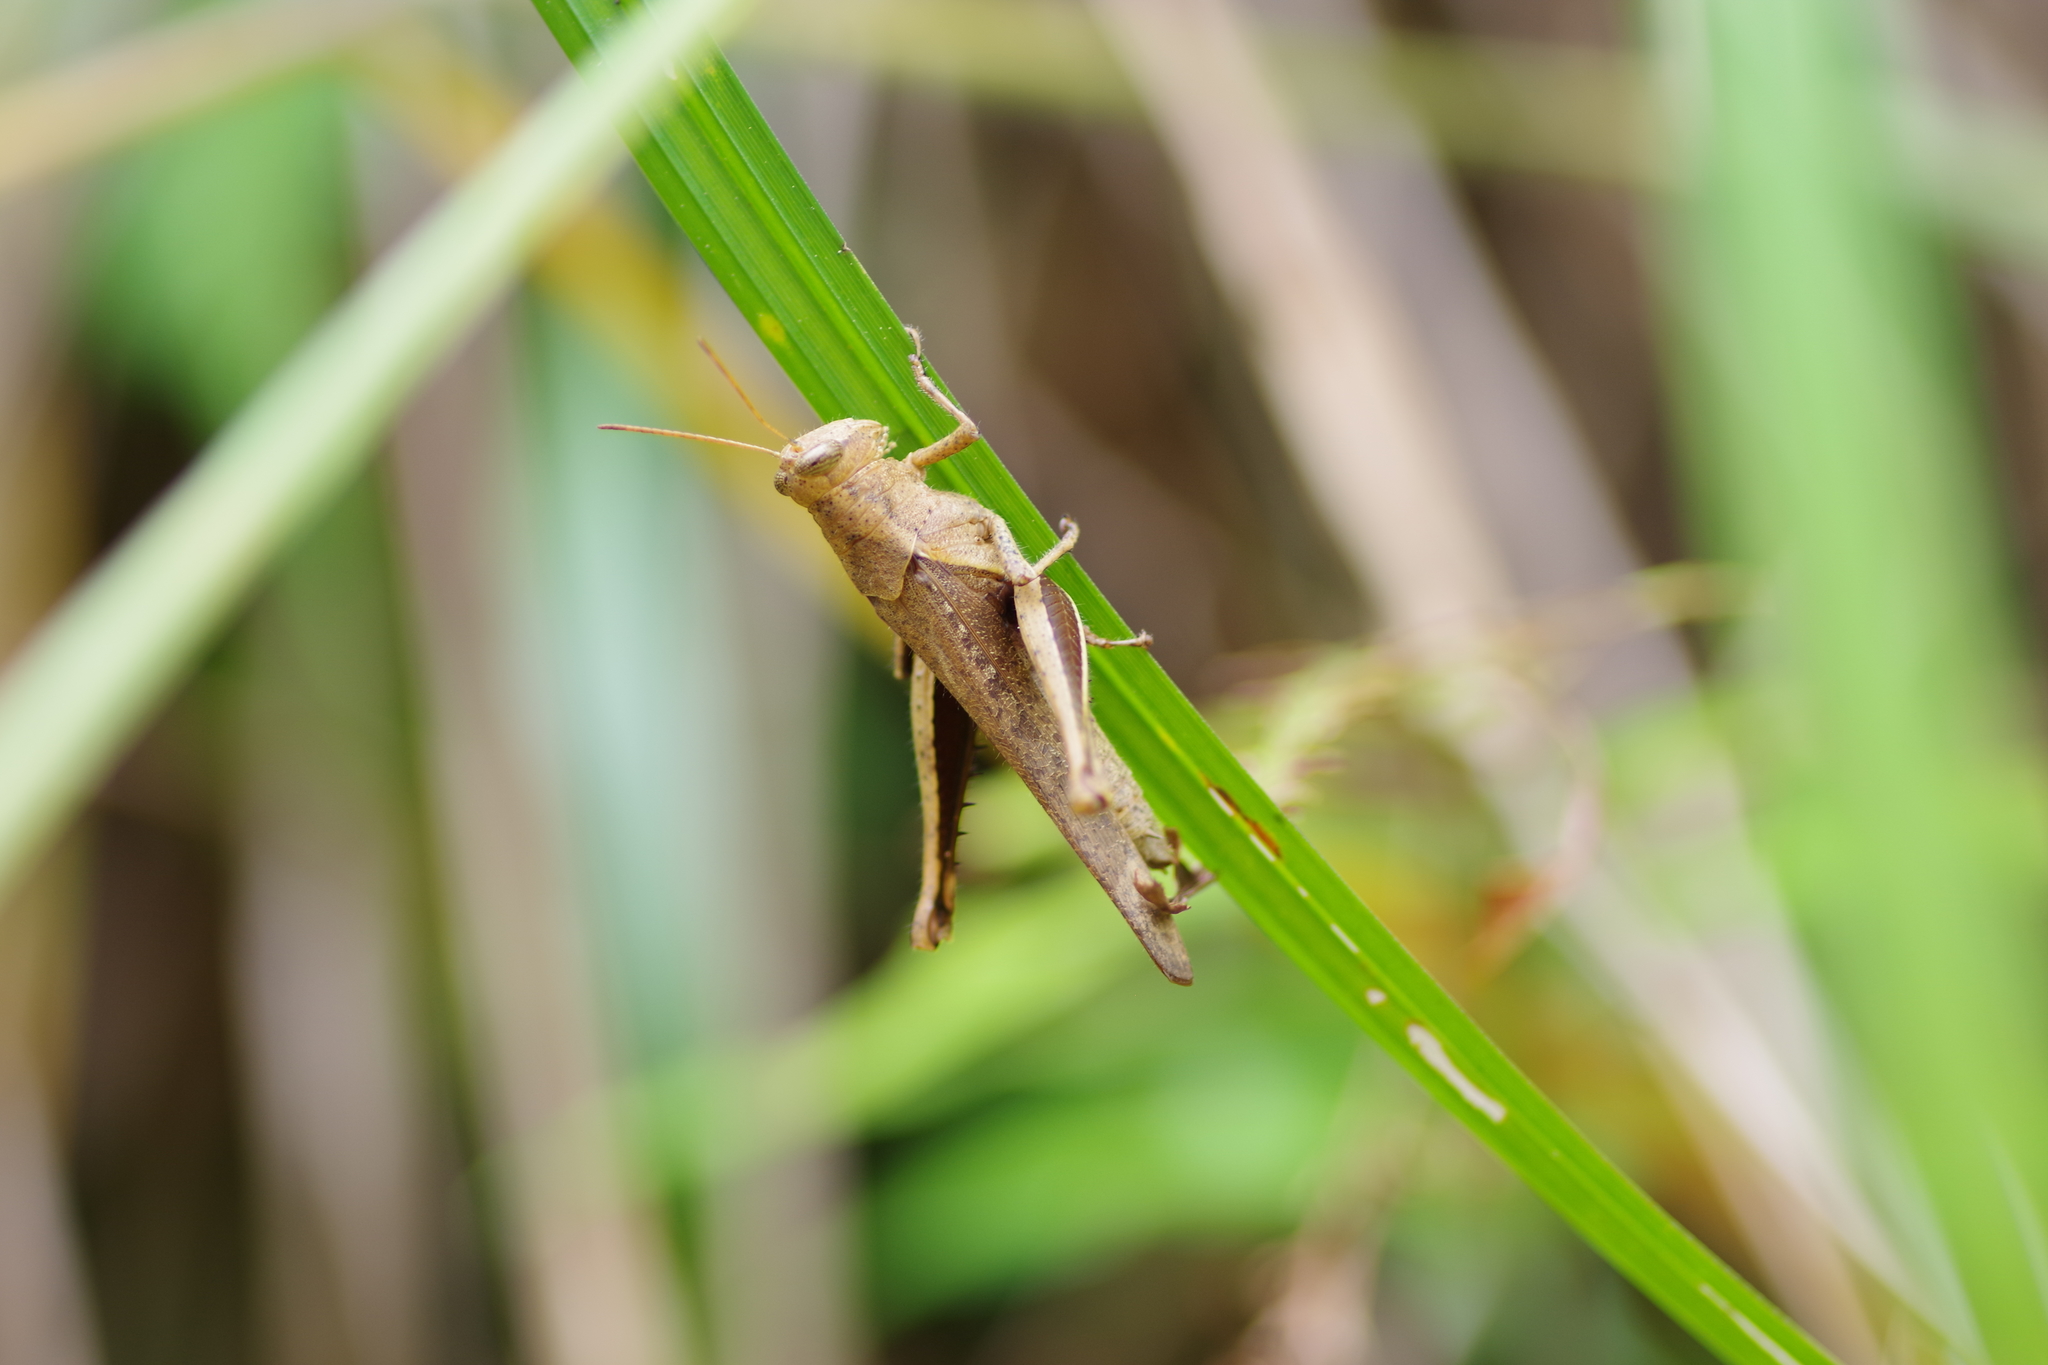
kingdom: Animalia
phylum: Arthropoda
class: Insecta
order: Orthoptera
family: Acrididae
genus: Abracris
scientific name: Abracris flavolineata
